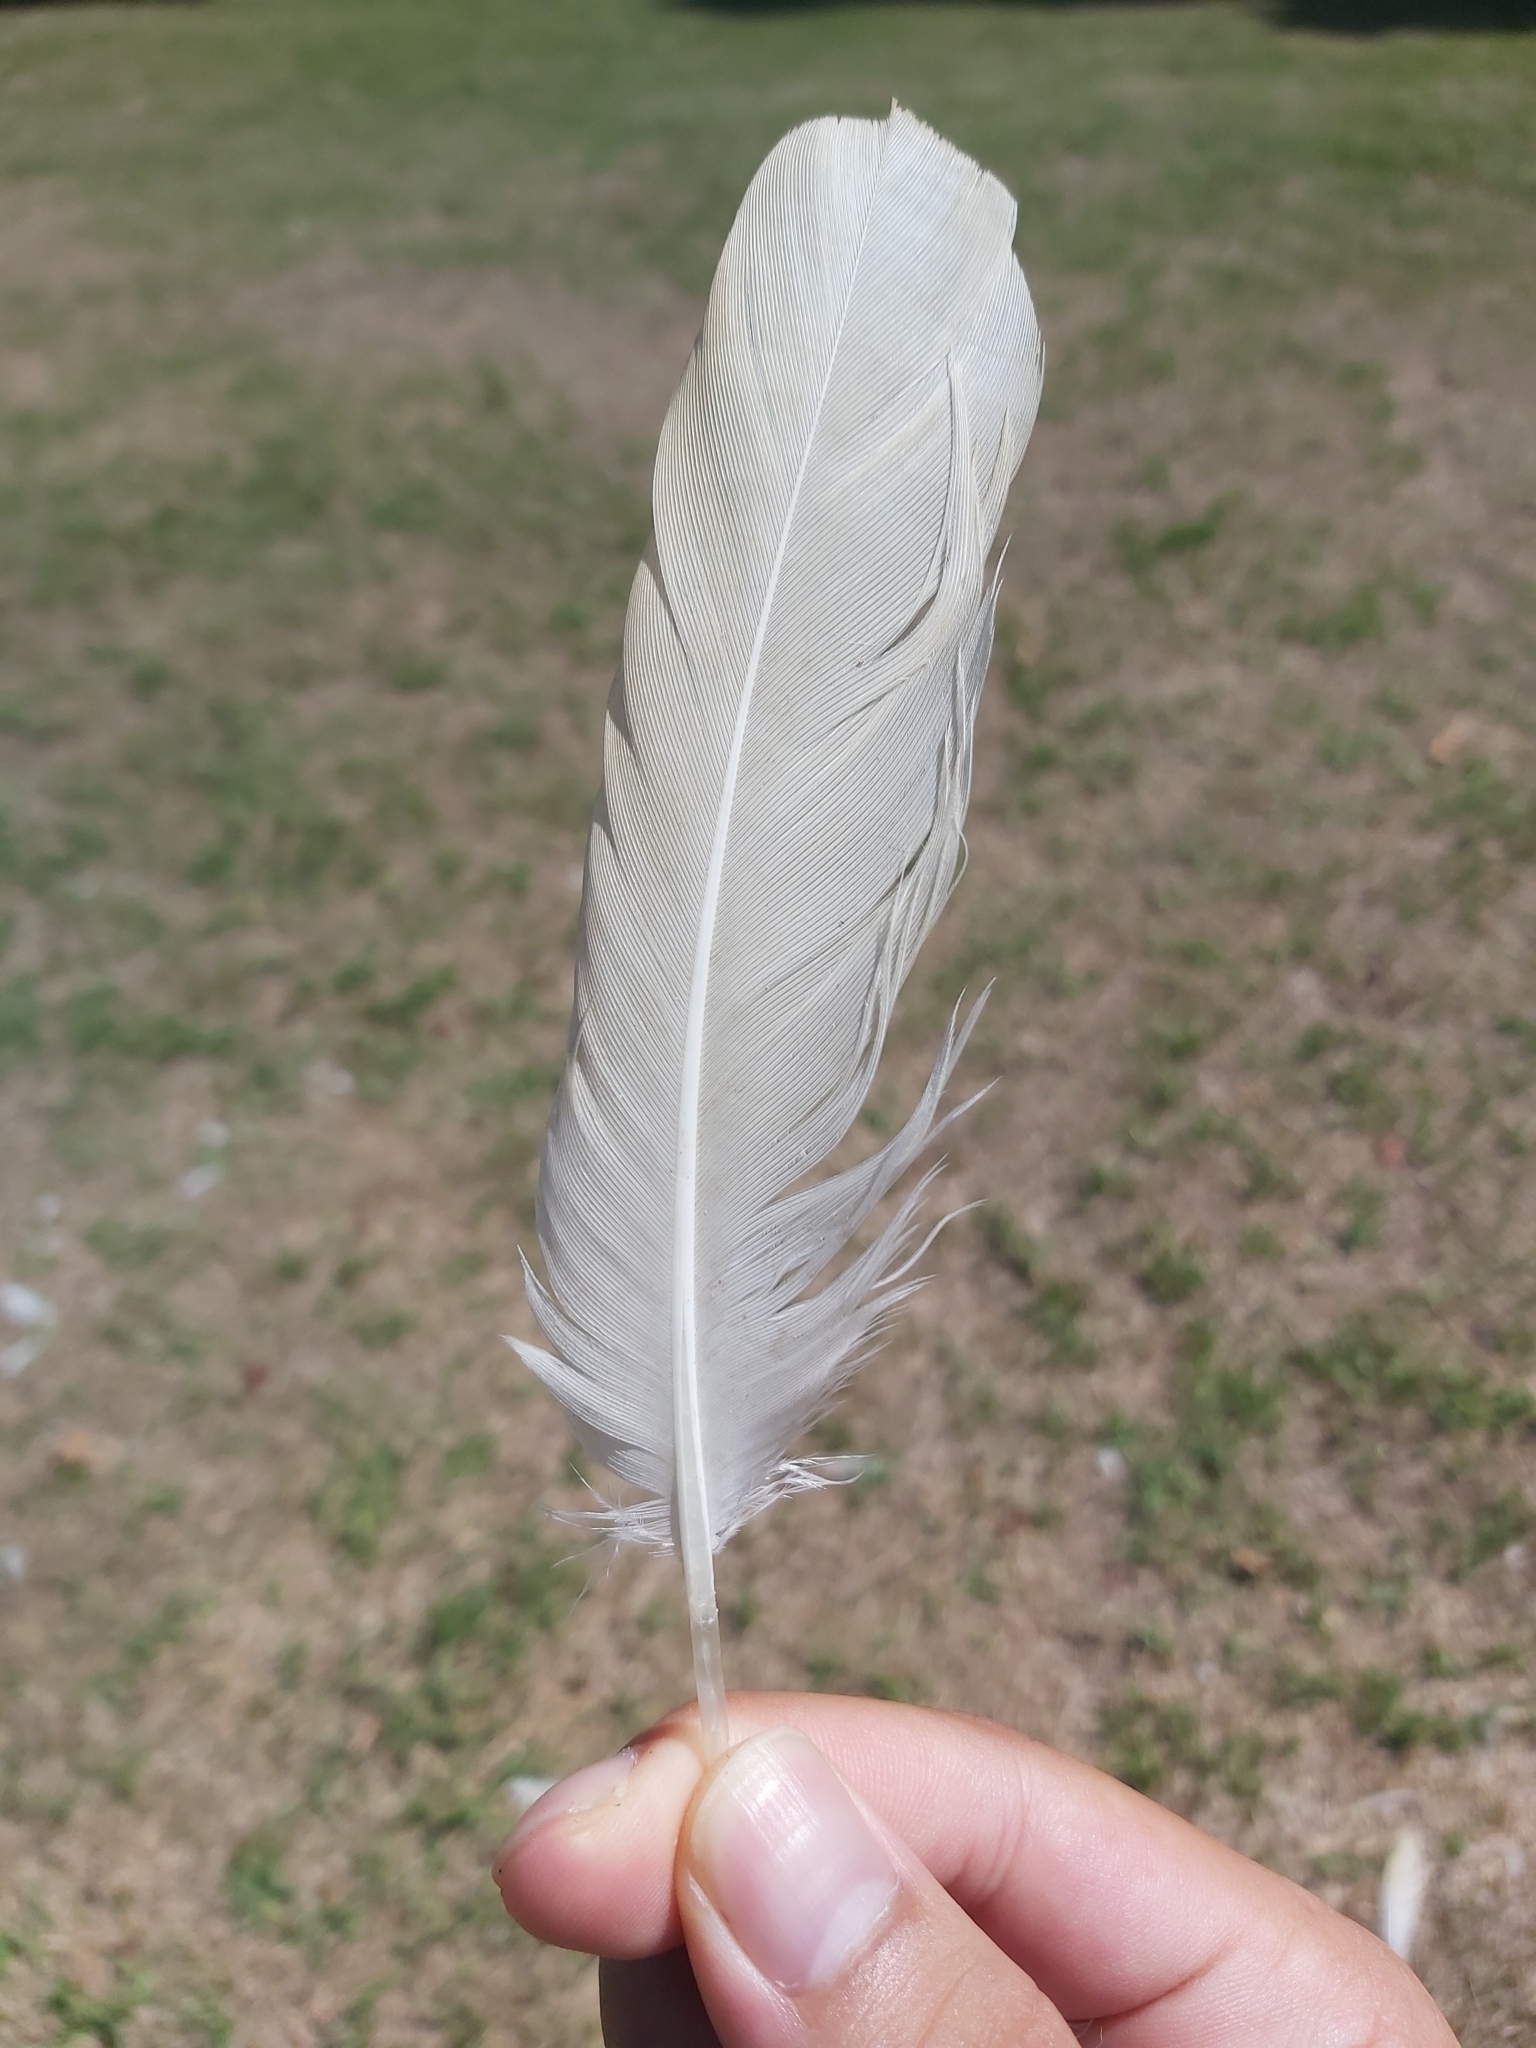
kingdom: Animalia
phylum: Chordata
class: Aves
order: Pelecaniformes
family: Threskiornithidae
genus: Threskiornis
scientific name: Threskiornis molucca
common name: Australian white ibis
